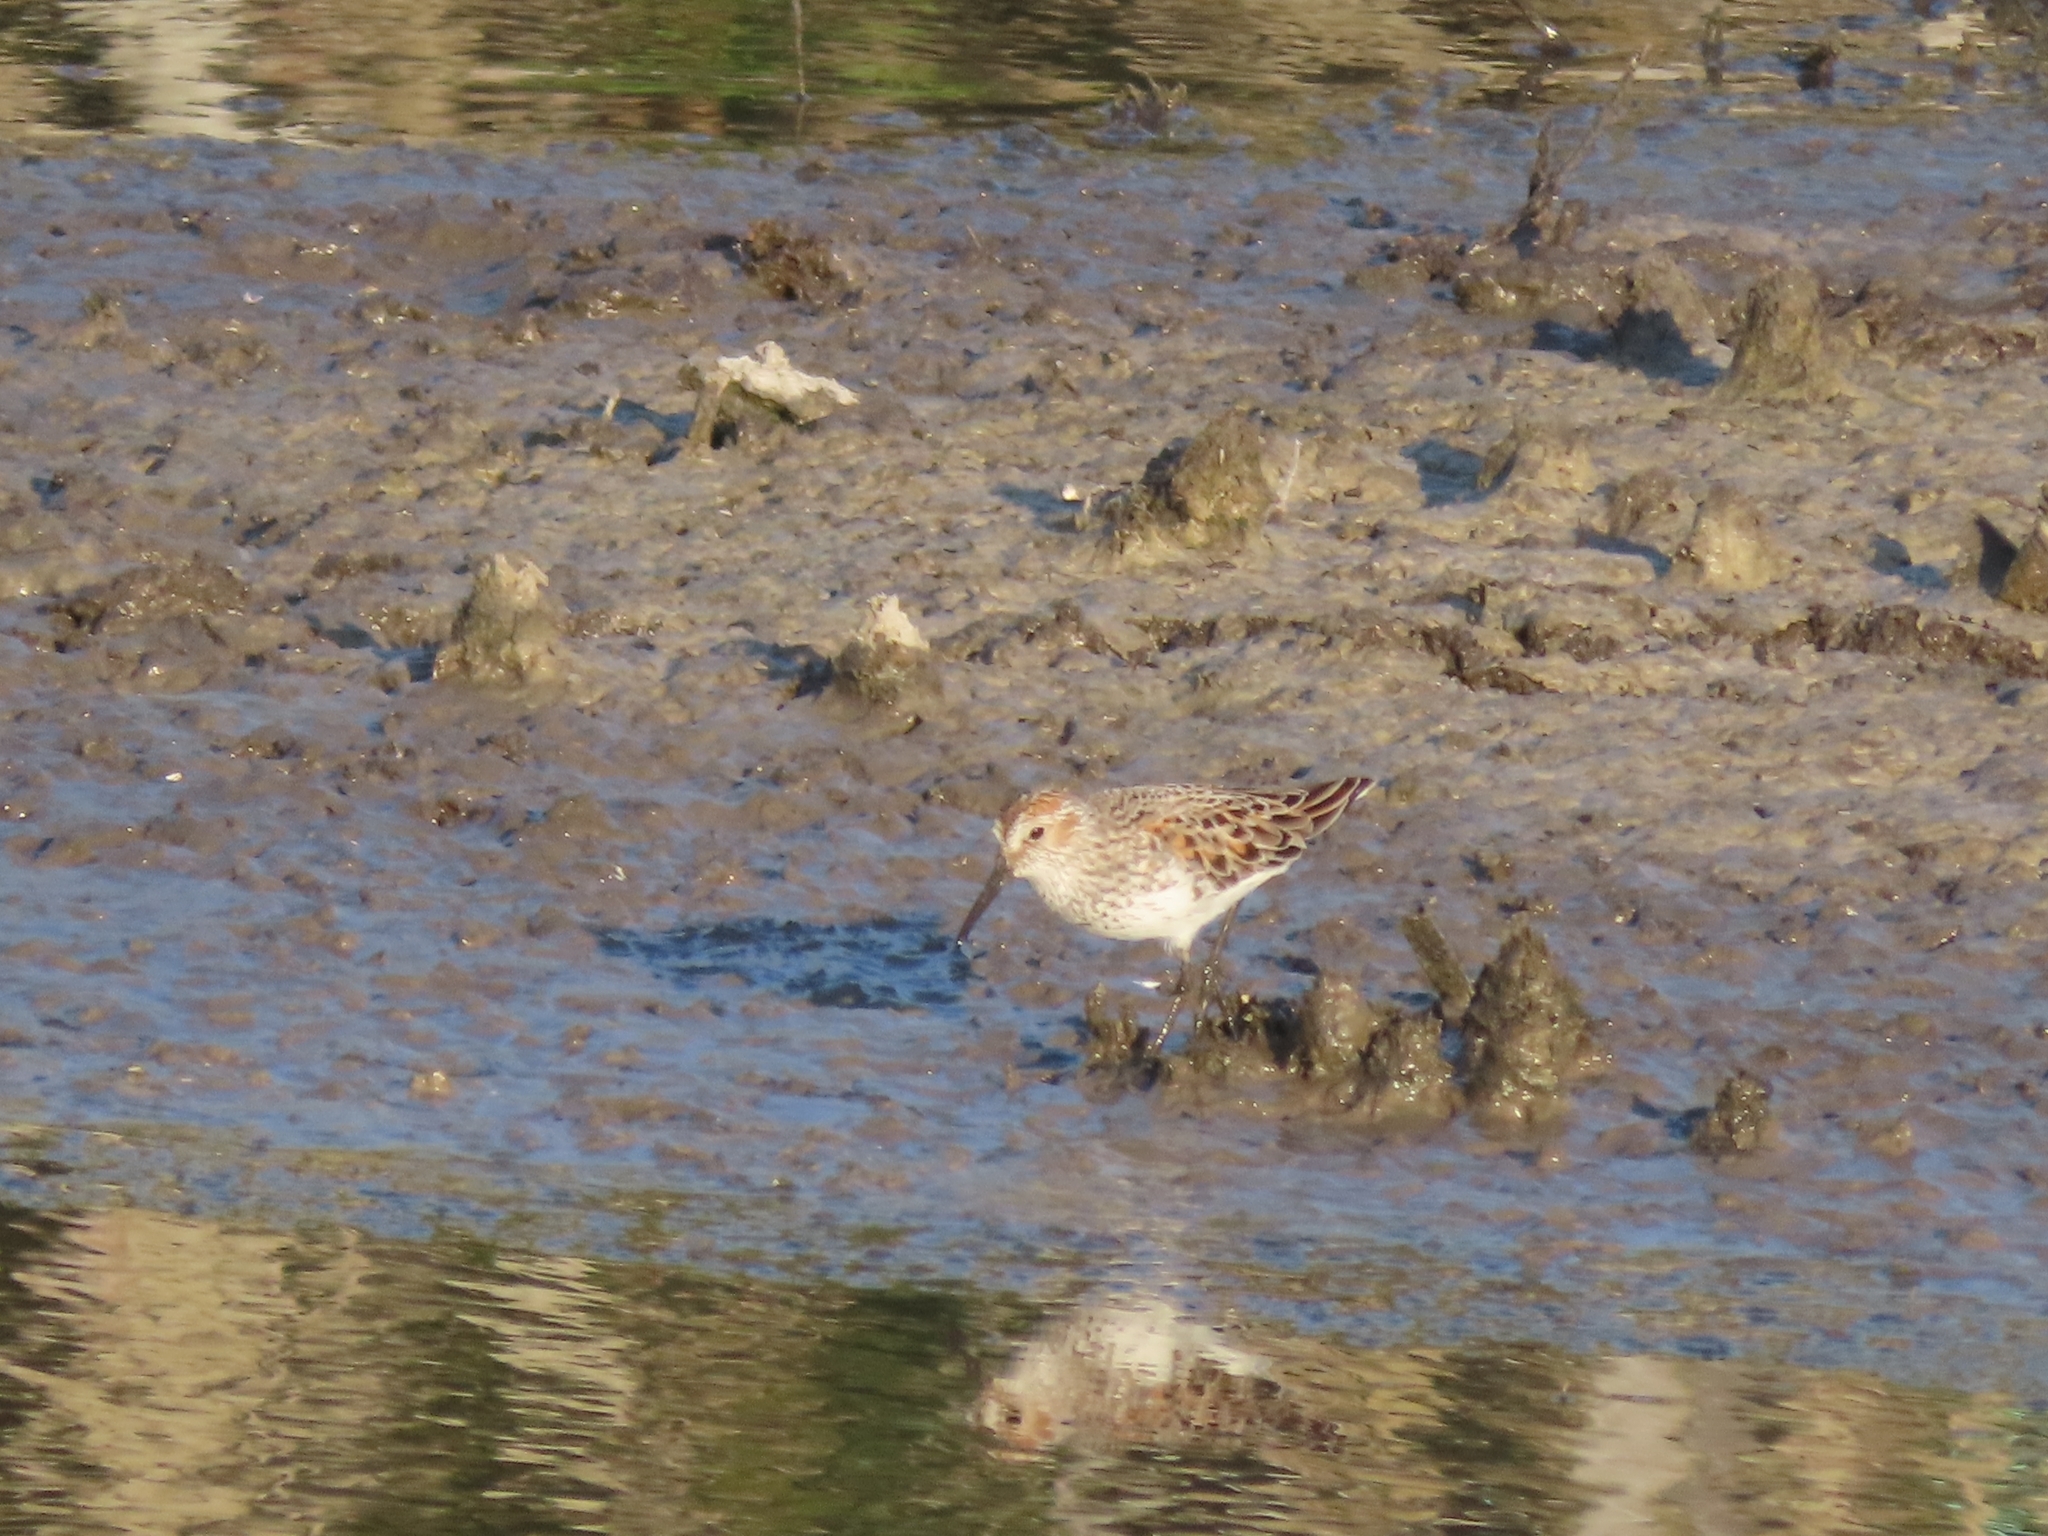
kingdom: Animalia
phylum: Chordata
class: Aves
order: Charadriiformes
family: Scolopacidae
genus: Calidris
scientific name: Calidris mauri
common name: Western sandpiper
